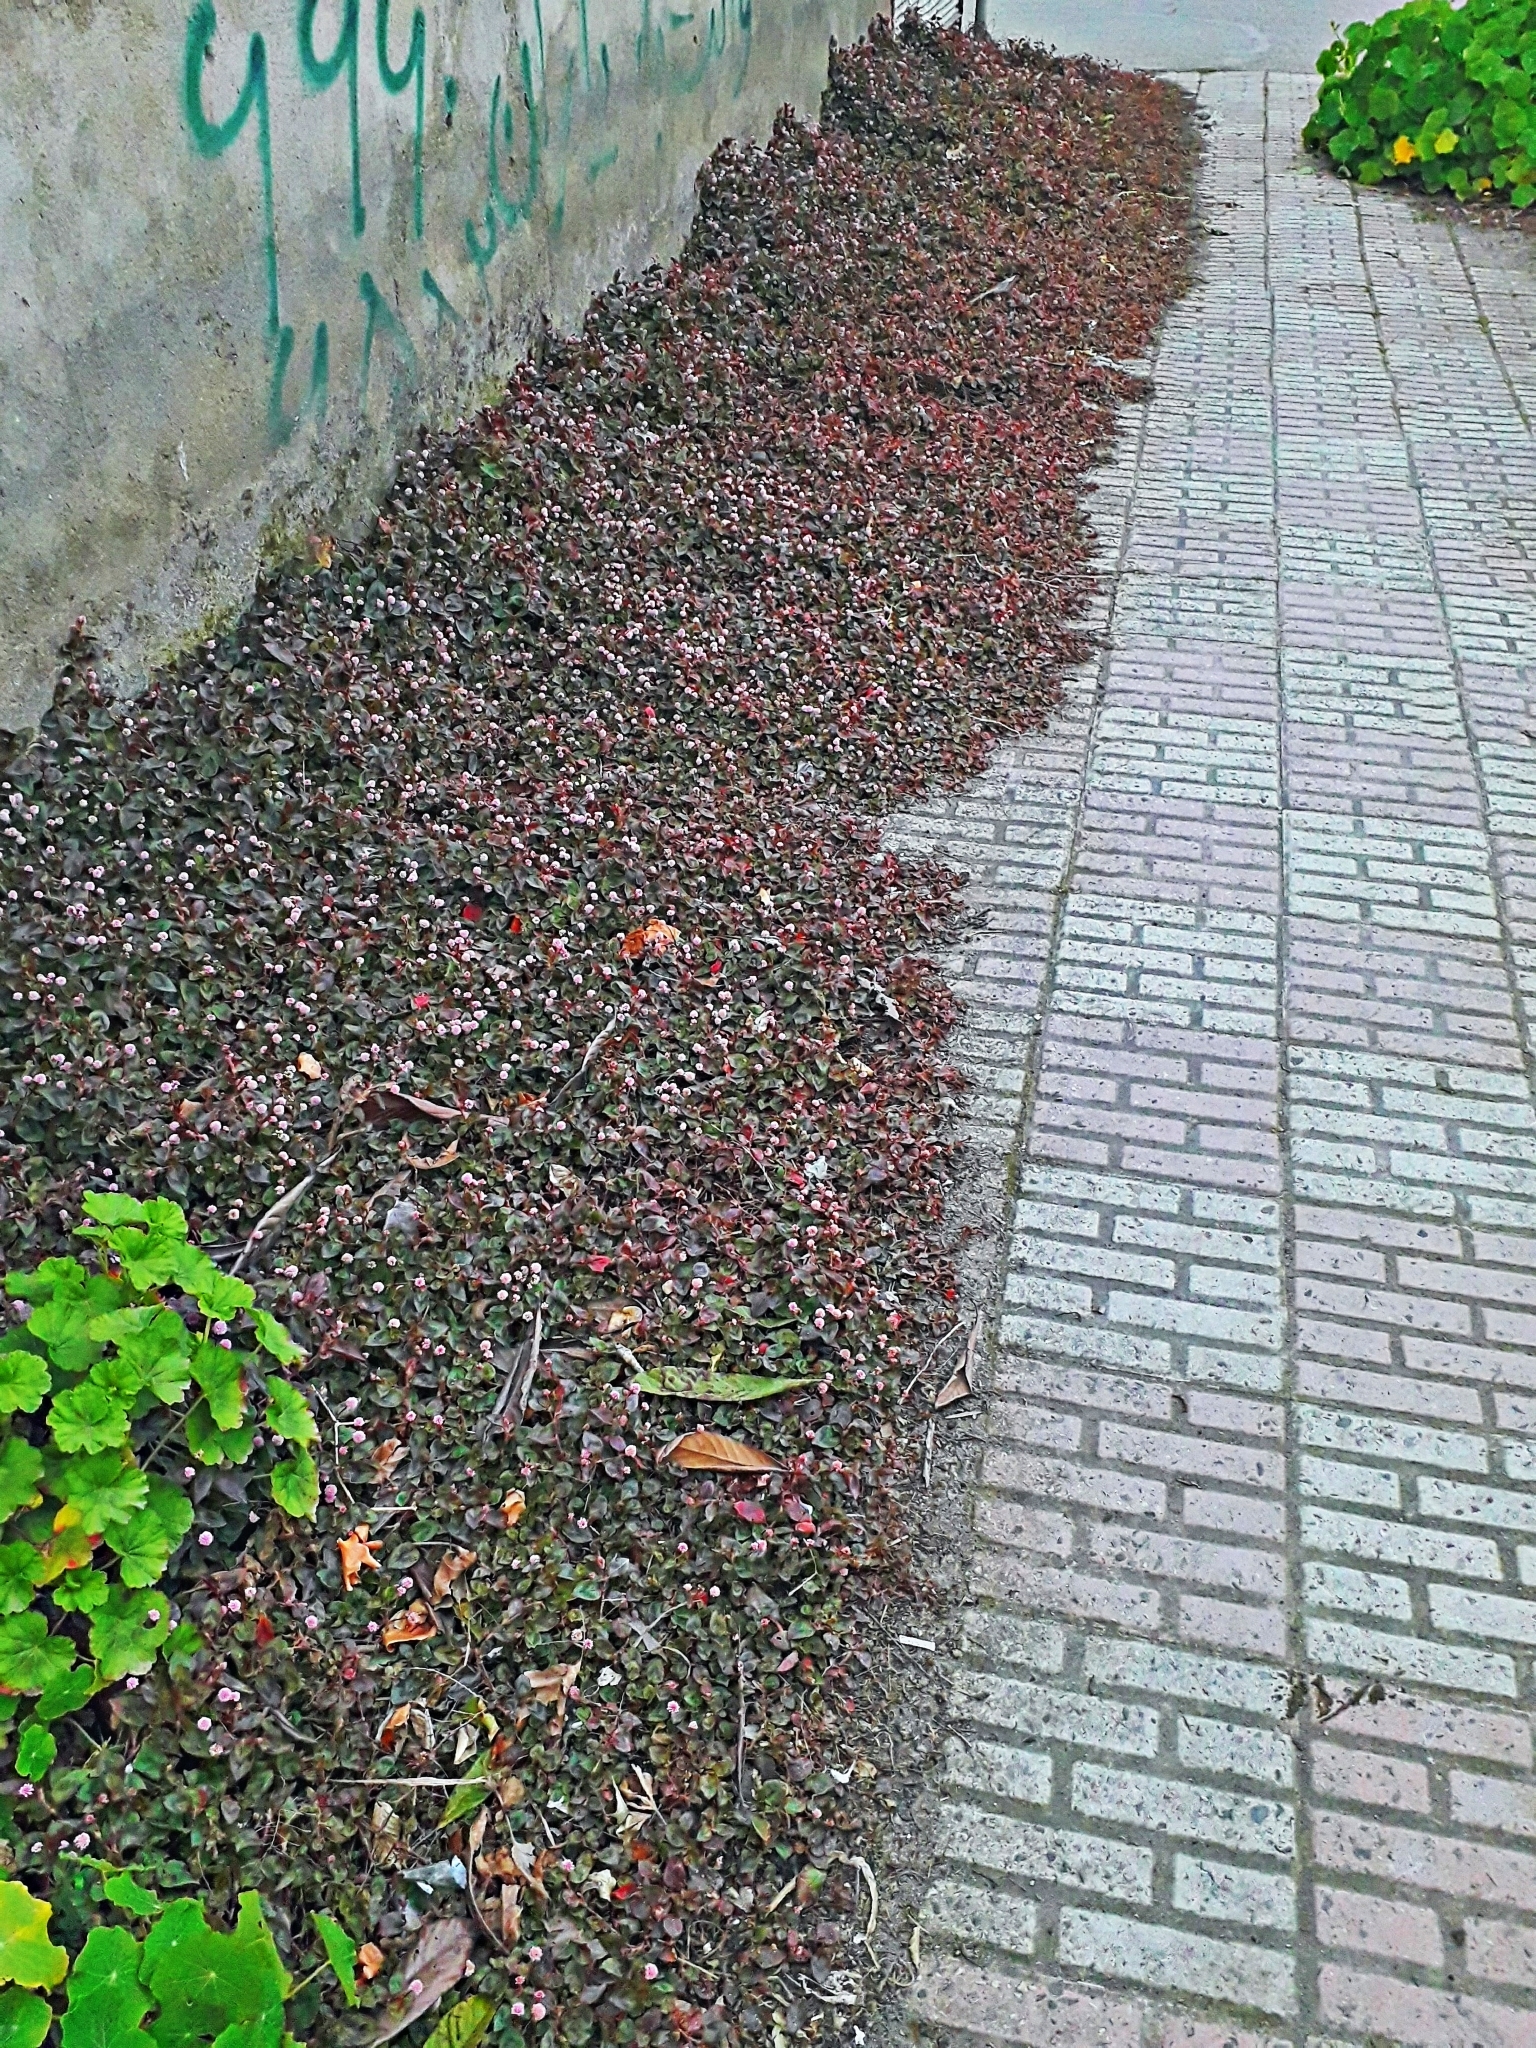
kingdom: Plantae
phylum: Tracheophyta
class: Magnoliopsida
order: Caryophyllales
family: Polygonaceae
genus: Persicaria
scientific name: Persicaria capitata
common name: Pinkhead smartweed
